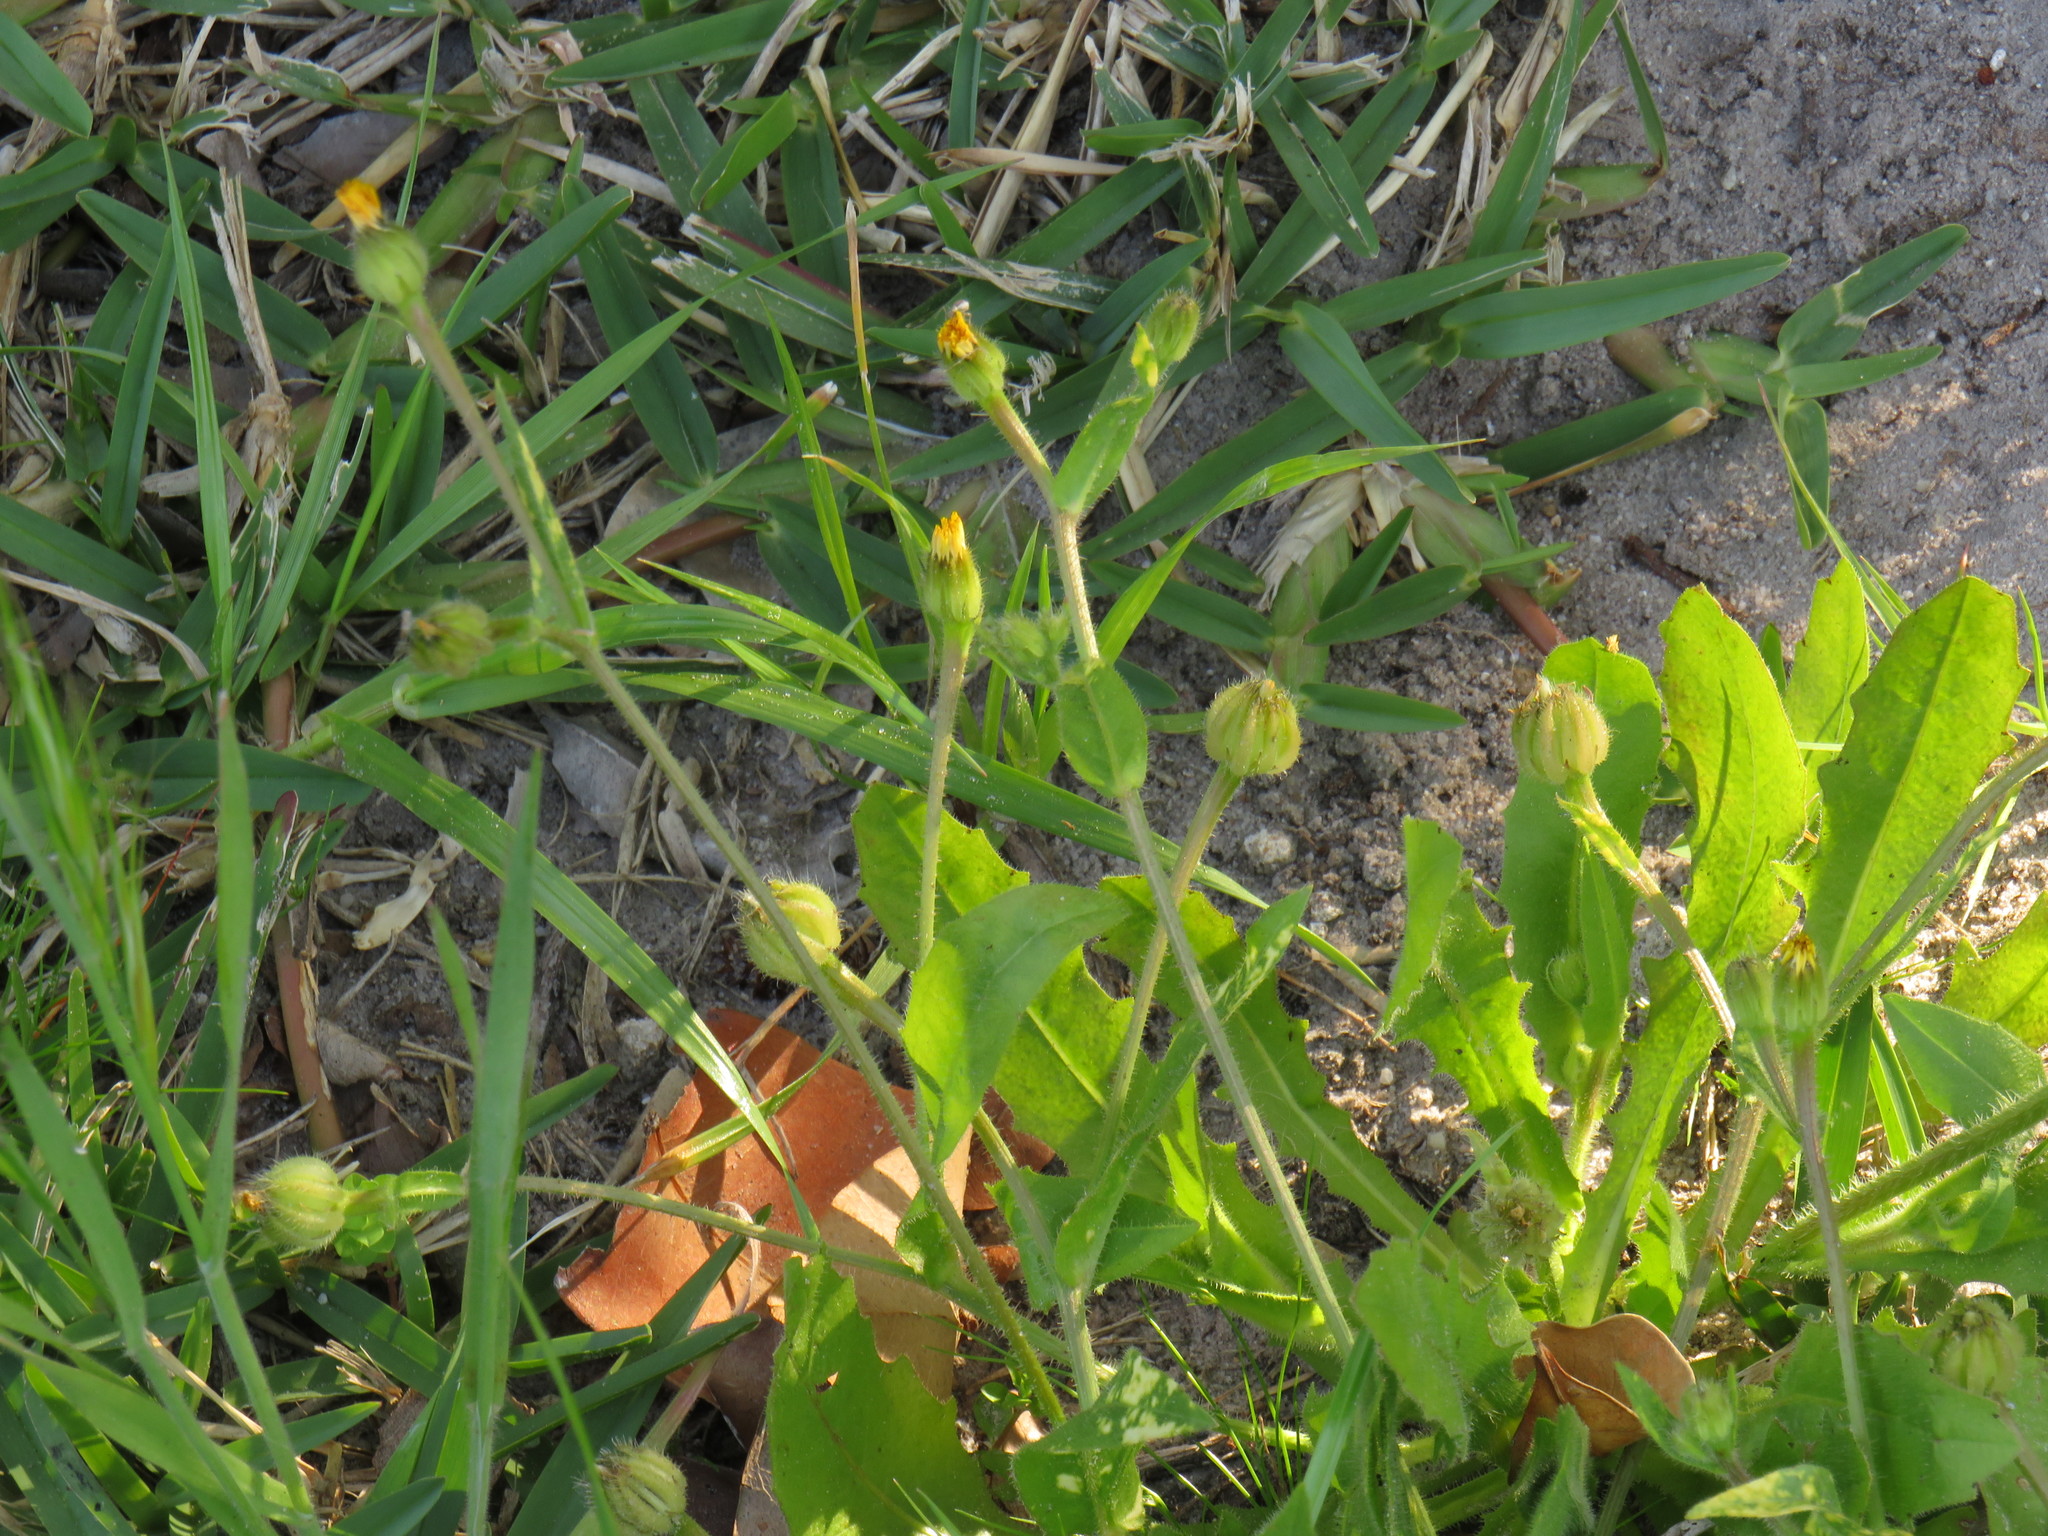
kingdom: Plantae
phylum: Tracheophyta
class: Magnoliopsida
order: Asterales
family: Asteraceae
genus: Hedypnois
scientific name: Hedypnois rhagadioloides
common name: Cretan weed
